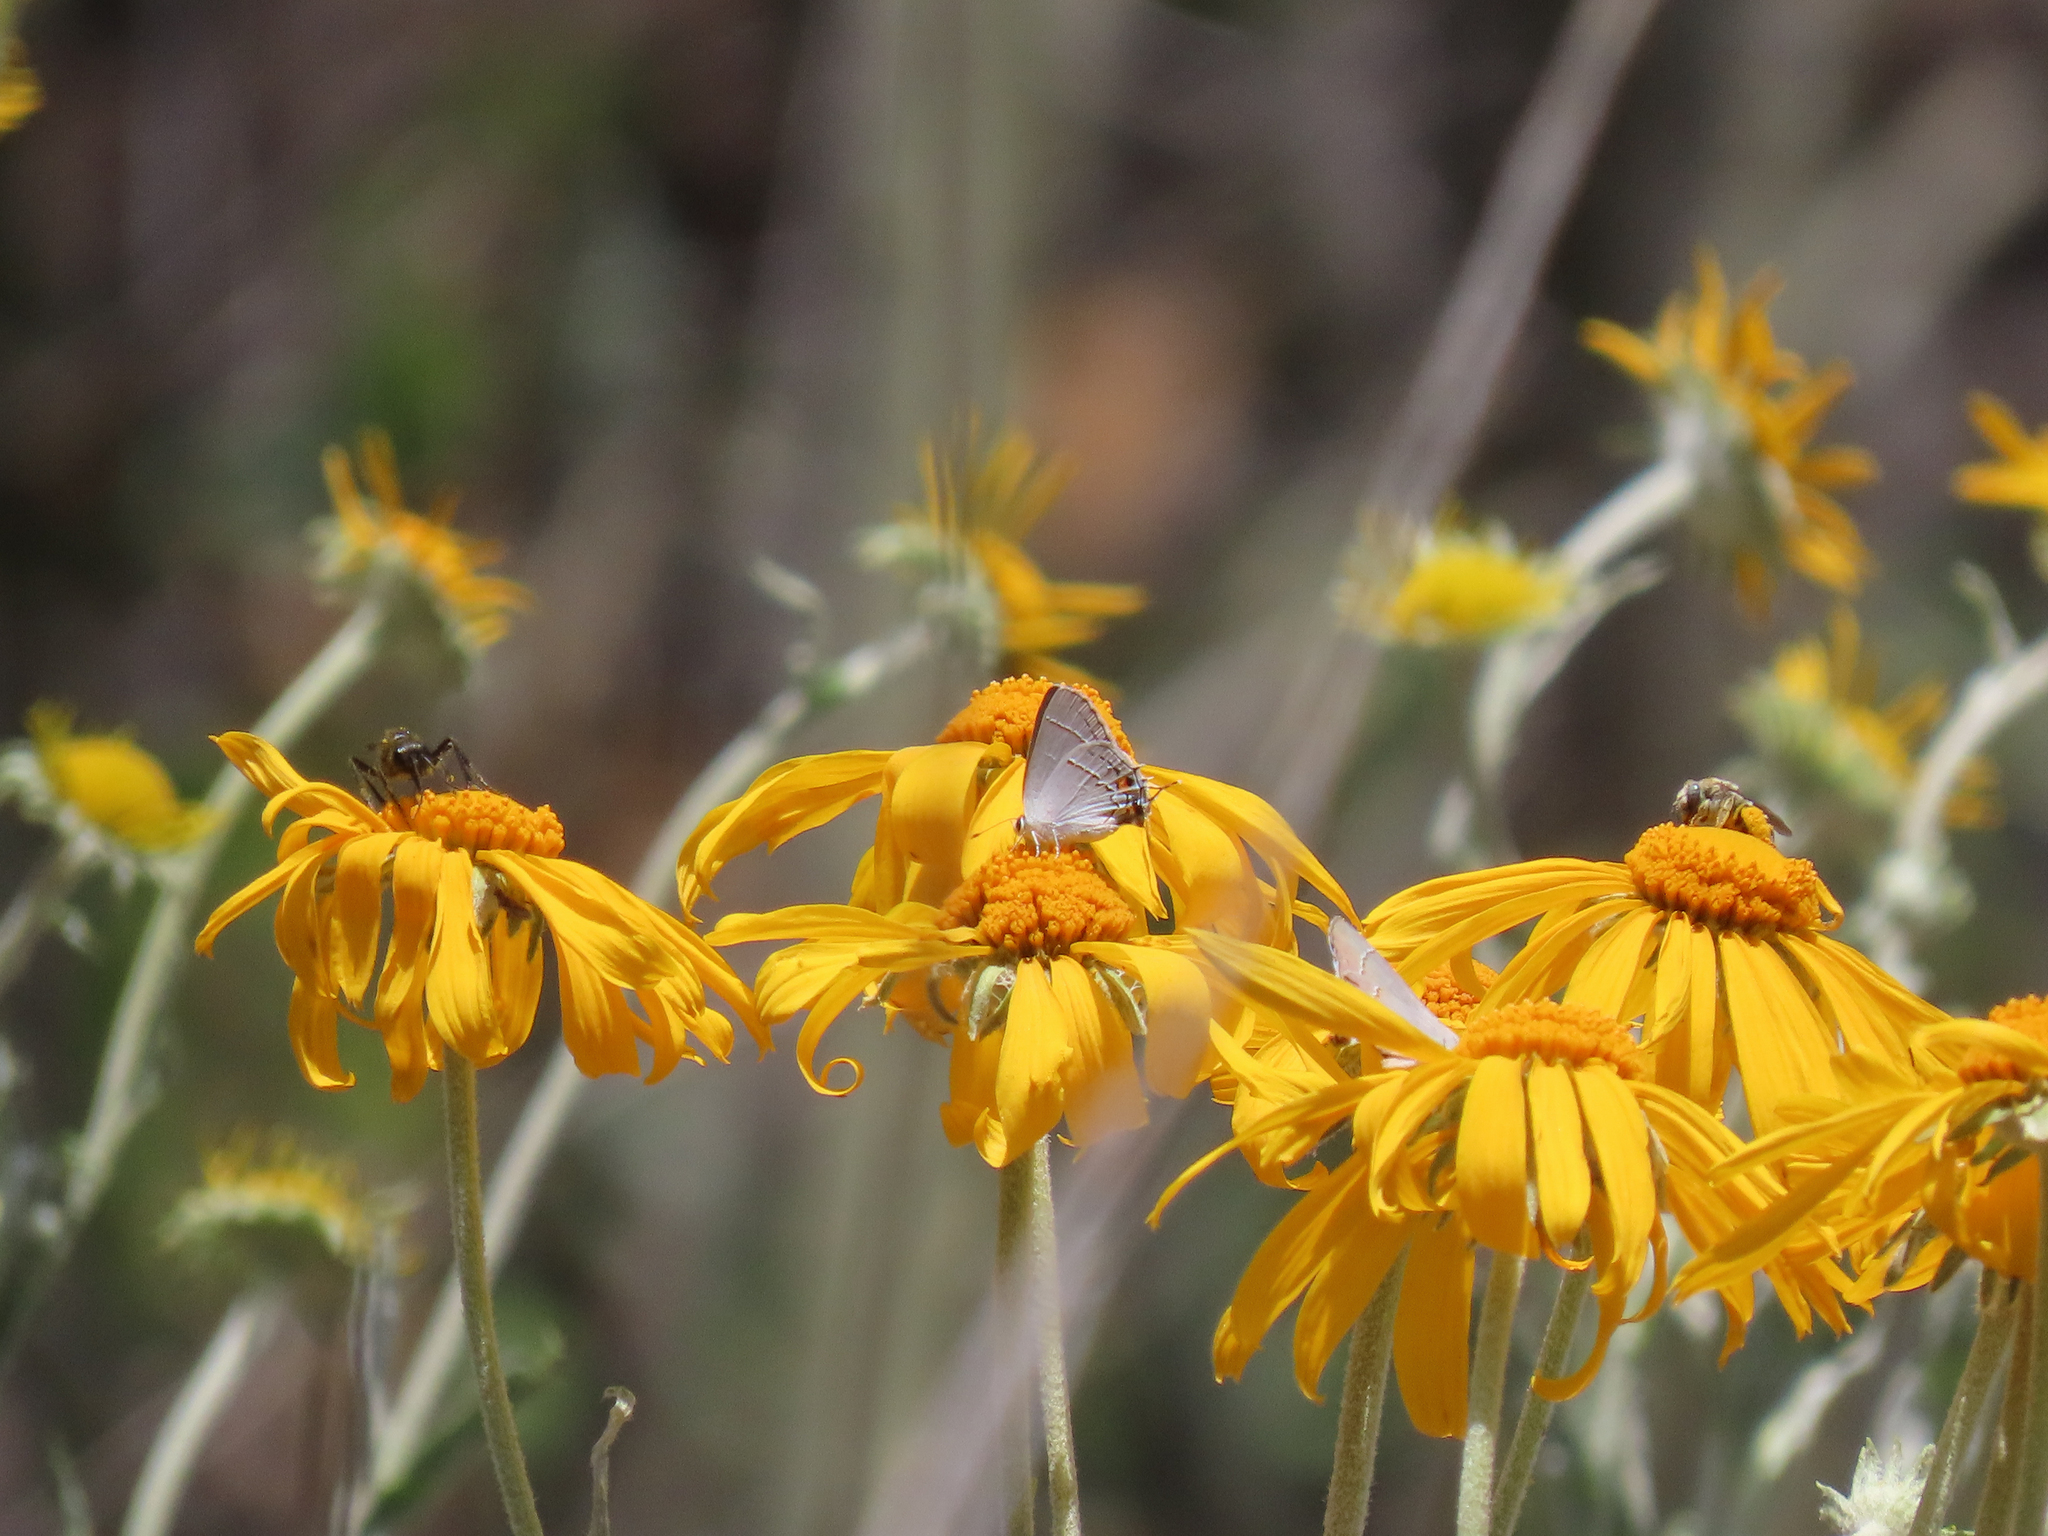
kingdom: Animalia
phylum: Arthropoda
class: Insecta
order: Lepidoptera
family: Lycaenidae
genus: Strymon
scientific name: Strymon melinus
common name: Gray hairstreak
